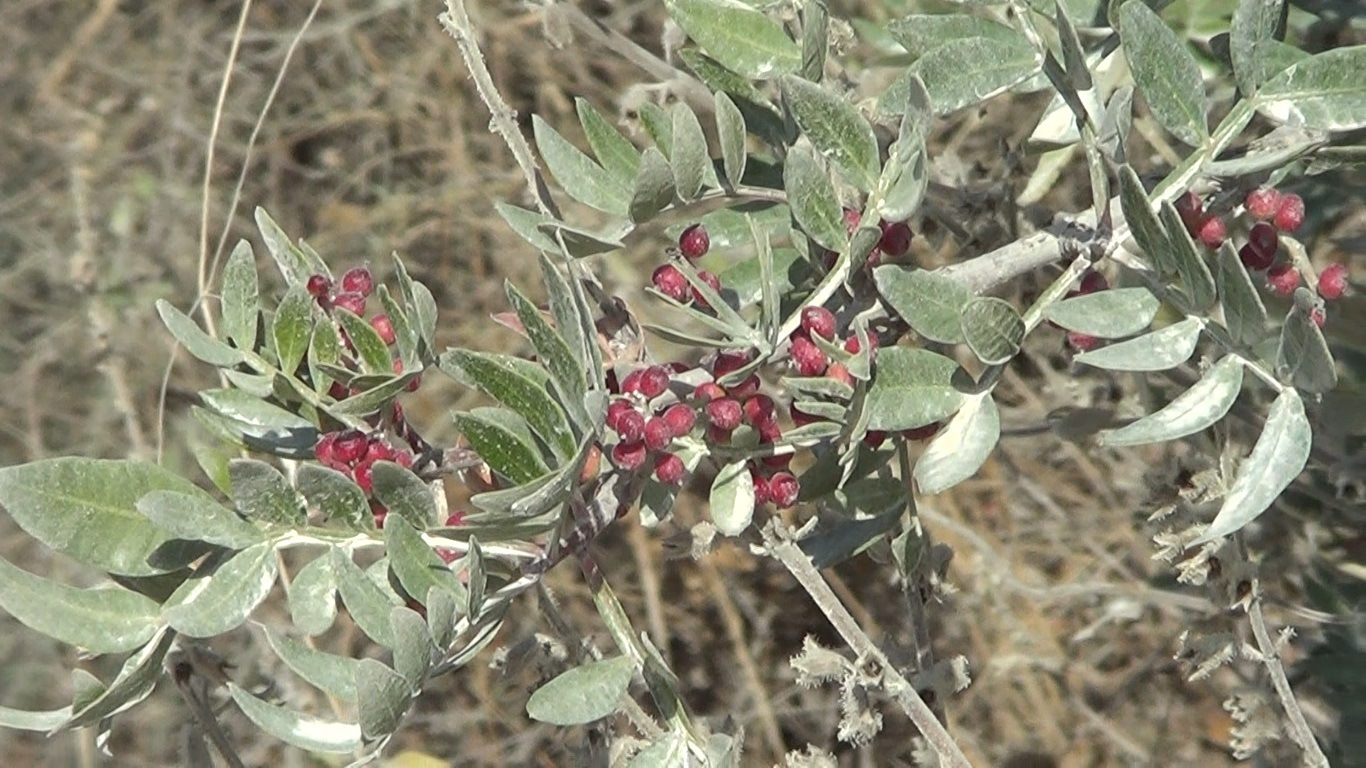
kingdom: Plantae
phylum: Tracheophyta
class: Magnoliopsida
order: Sapindales
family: Anacardiaceae
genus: Pistacia
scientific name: Pistacia lentiscus
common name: Lentisk
